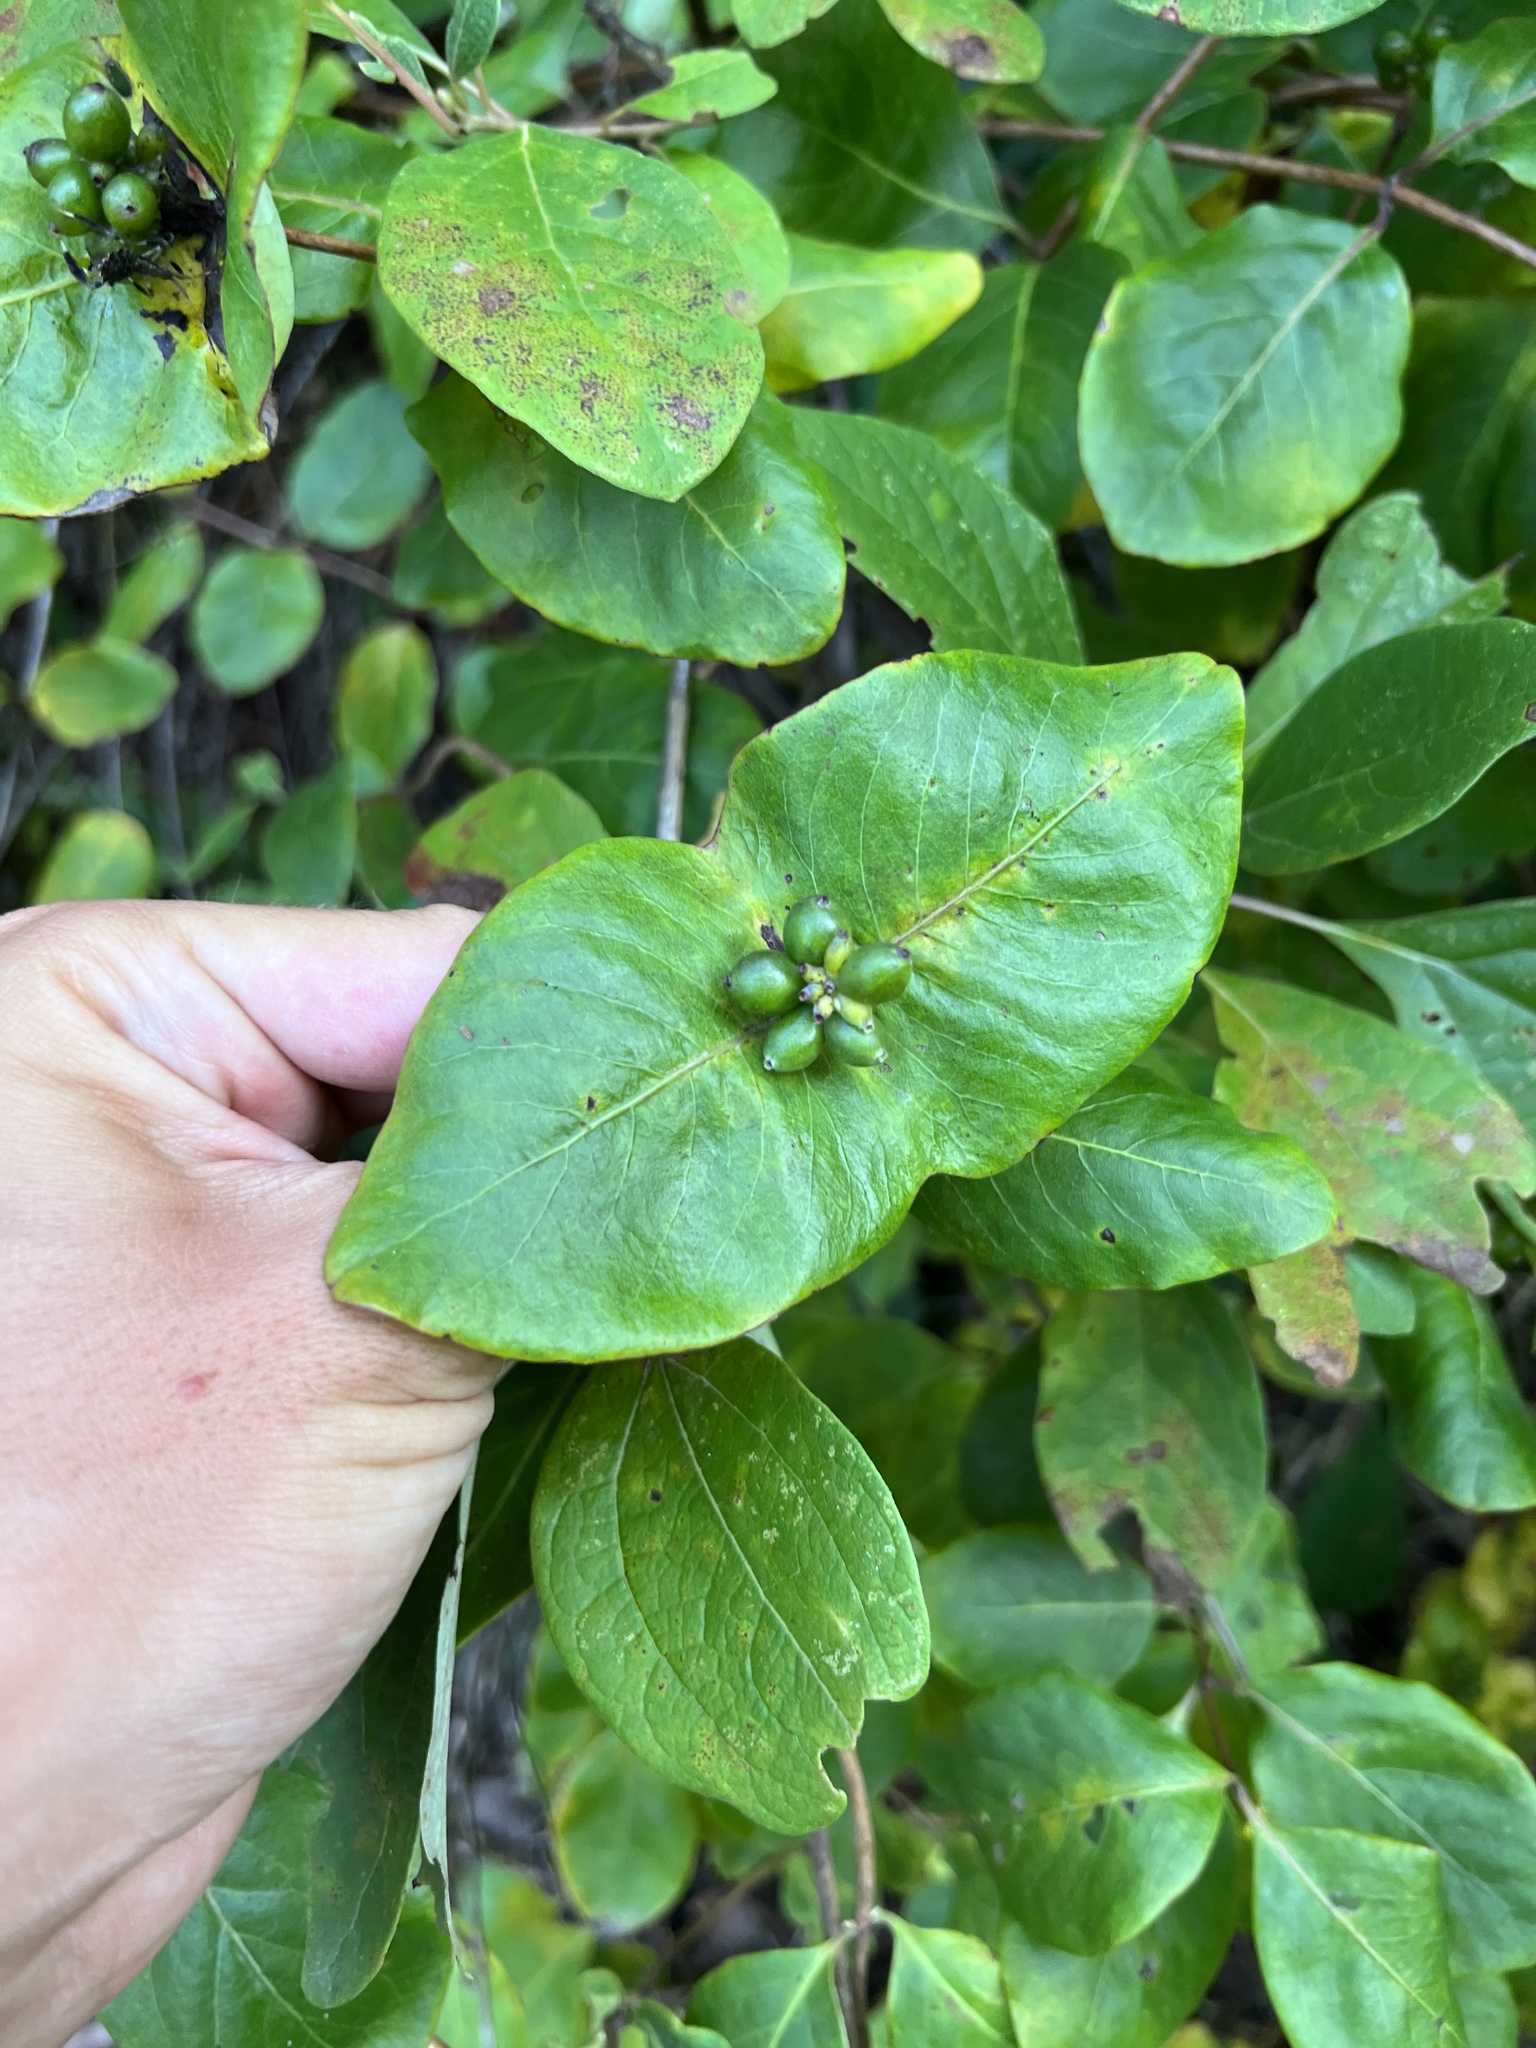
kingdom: Plantae
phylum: Tracheophyta
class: Magnoliopsida
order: Dipsacales
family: Caprifoliaceae
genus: Lonicera
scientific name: Lonicera flava
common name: Yellow honeysuckle
